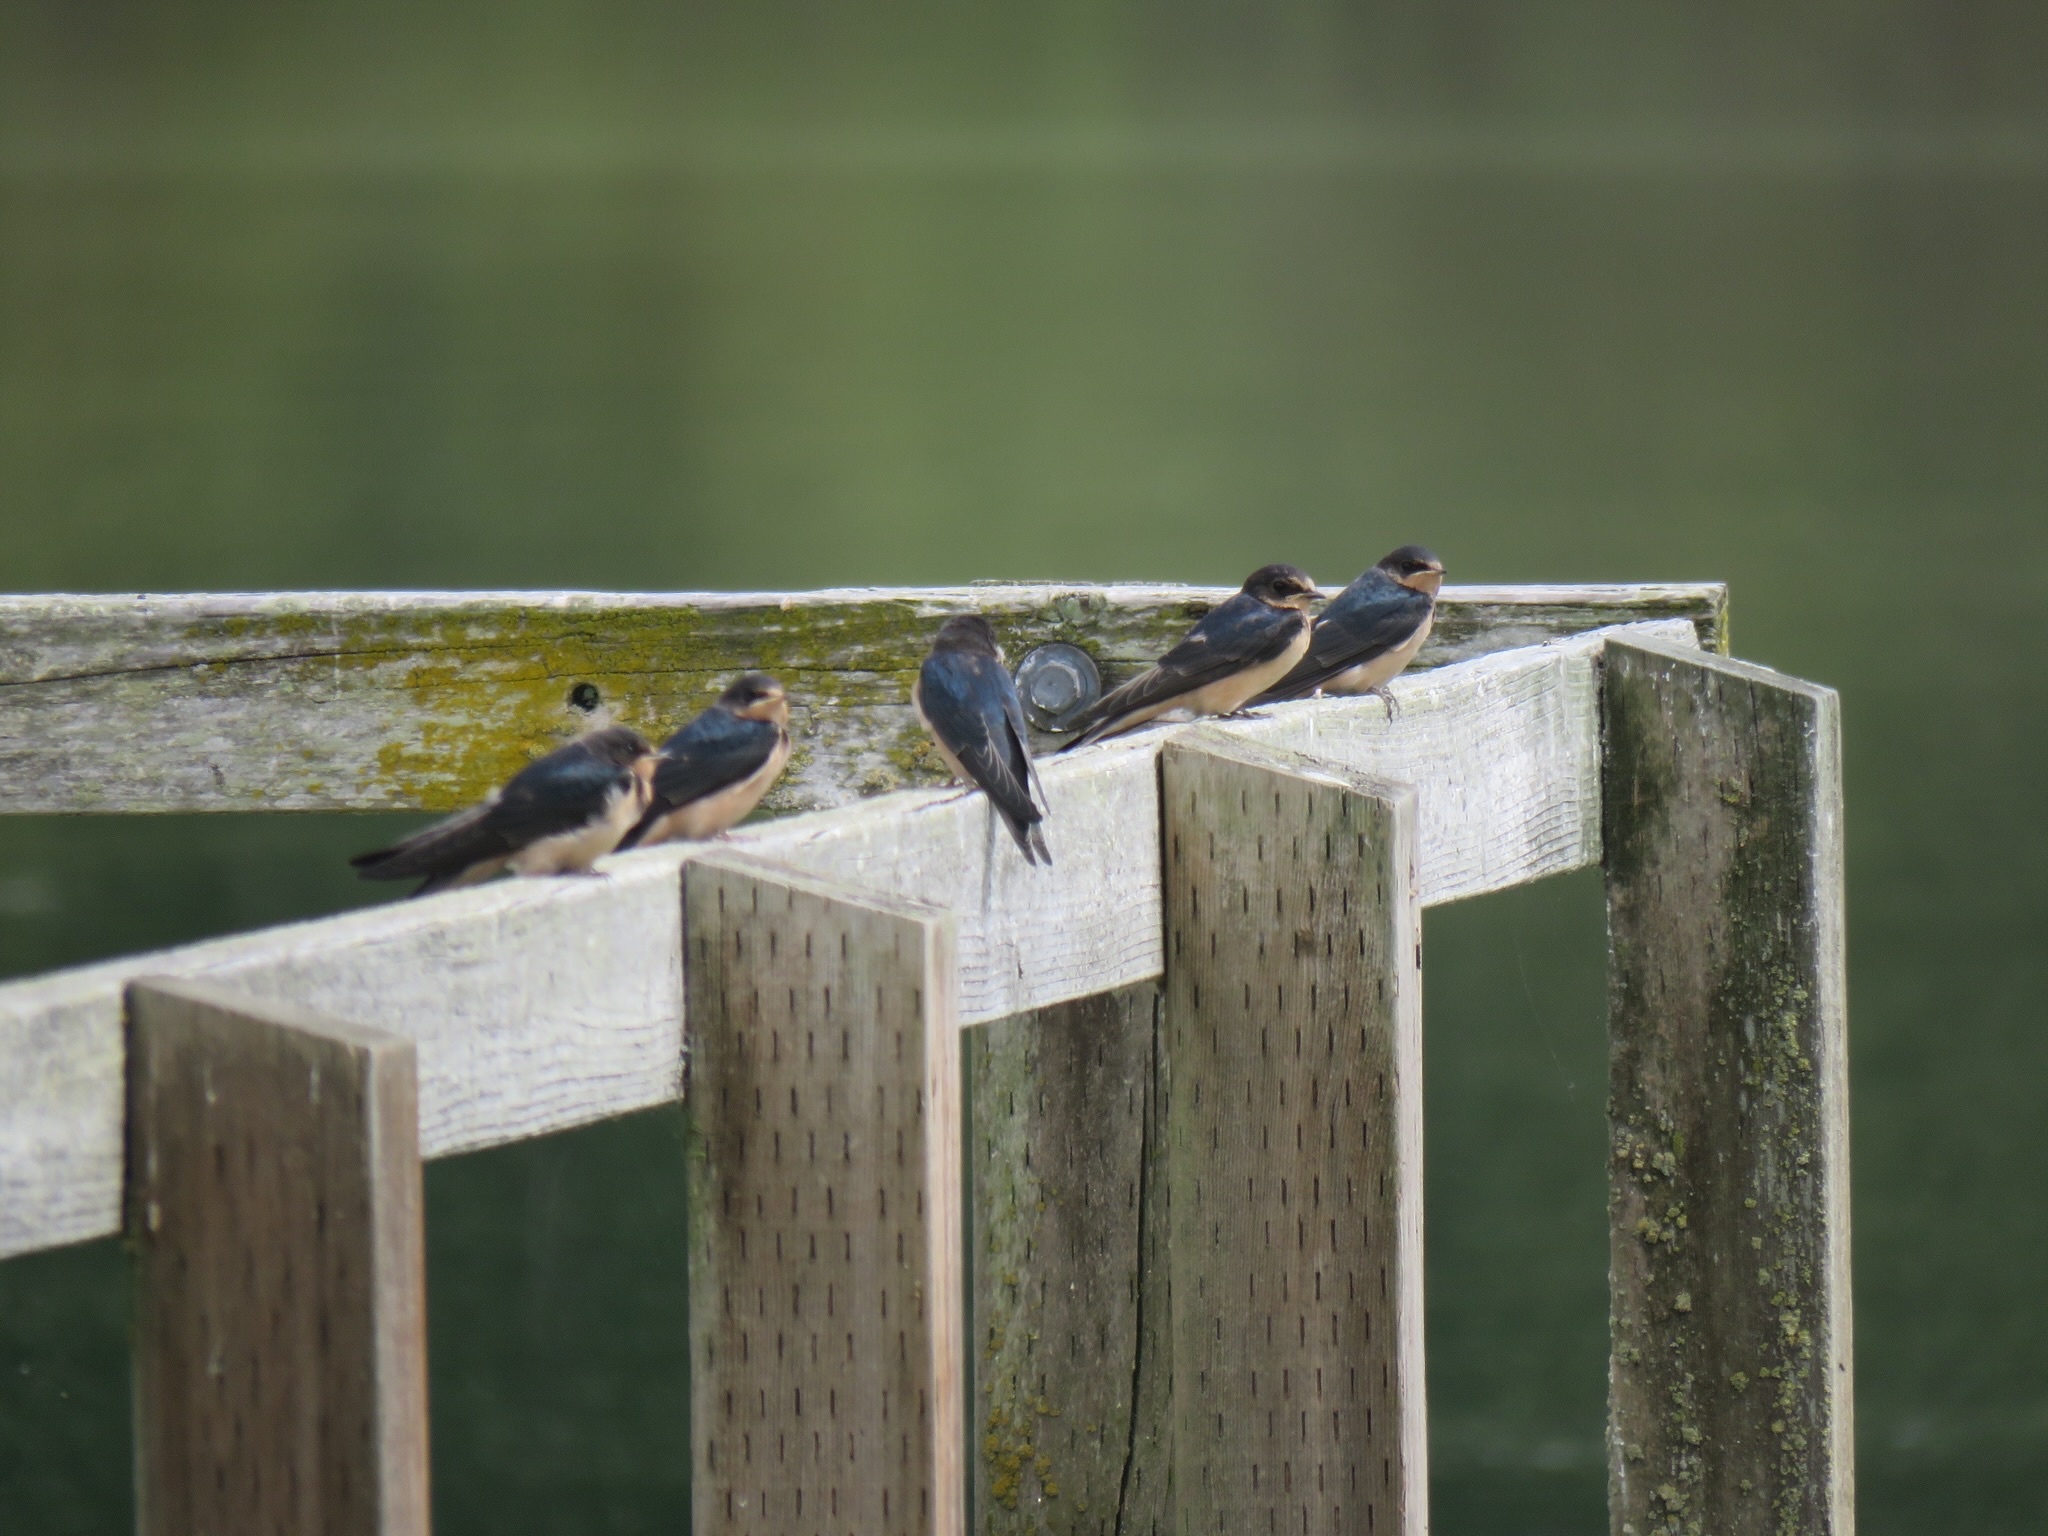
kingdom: Animalia
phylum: Chordata
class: Aves
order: Passeriformes
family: Hirundinidae
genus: Hirundo
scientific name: Hirundo rustica
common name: Barn swallow
